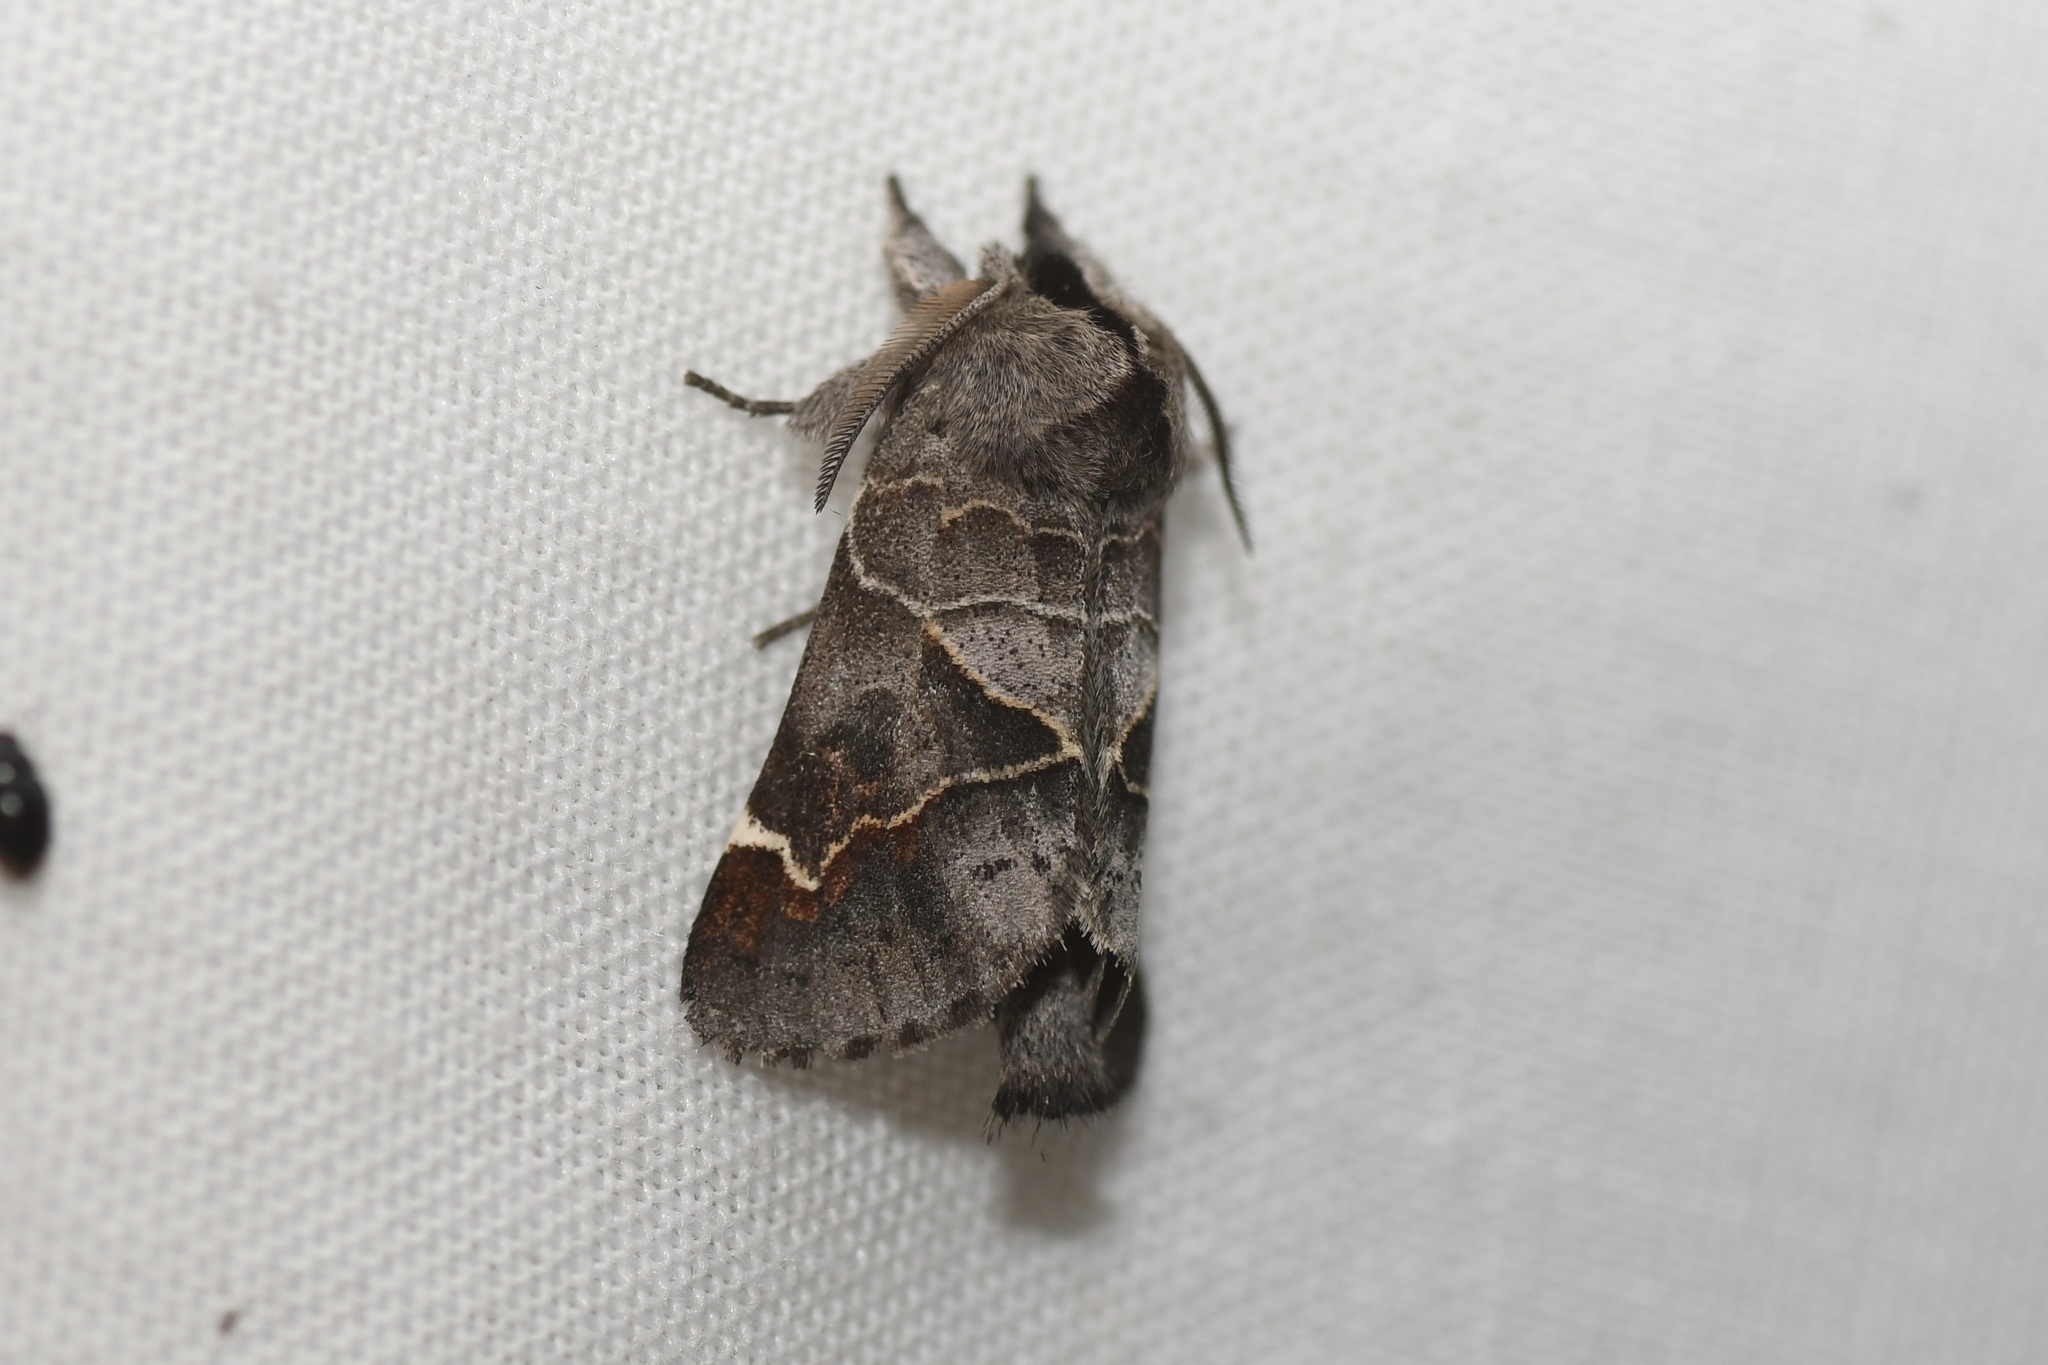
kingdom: Animalia
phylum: Arthropoda
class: Insecta
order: Lepidoptera
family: Notodontidae
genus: Clostera
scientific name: Clostera apicalis
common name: Apical prominent
